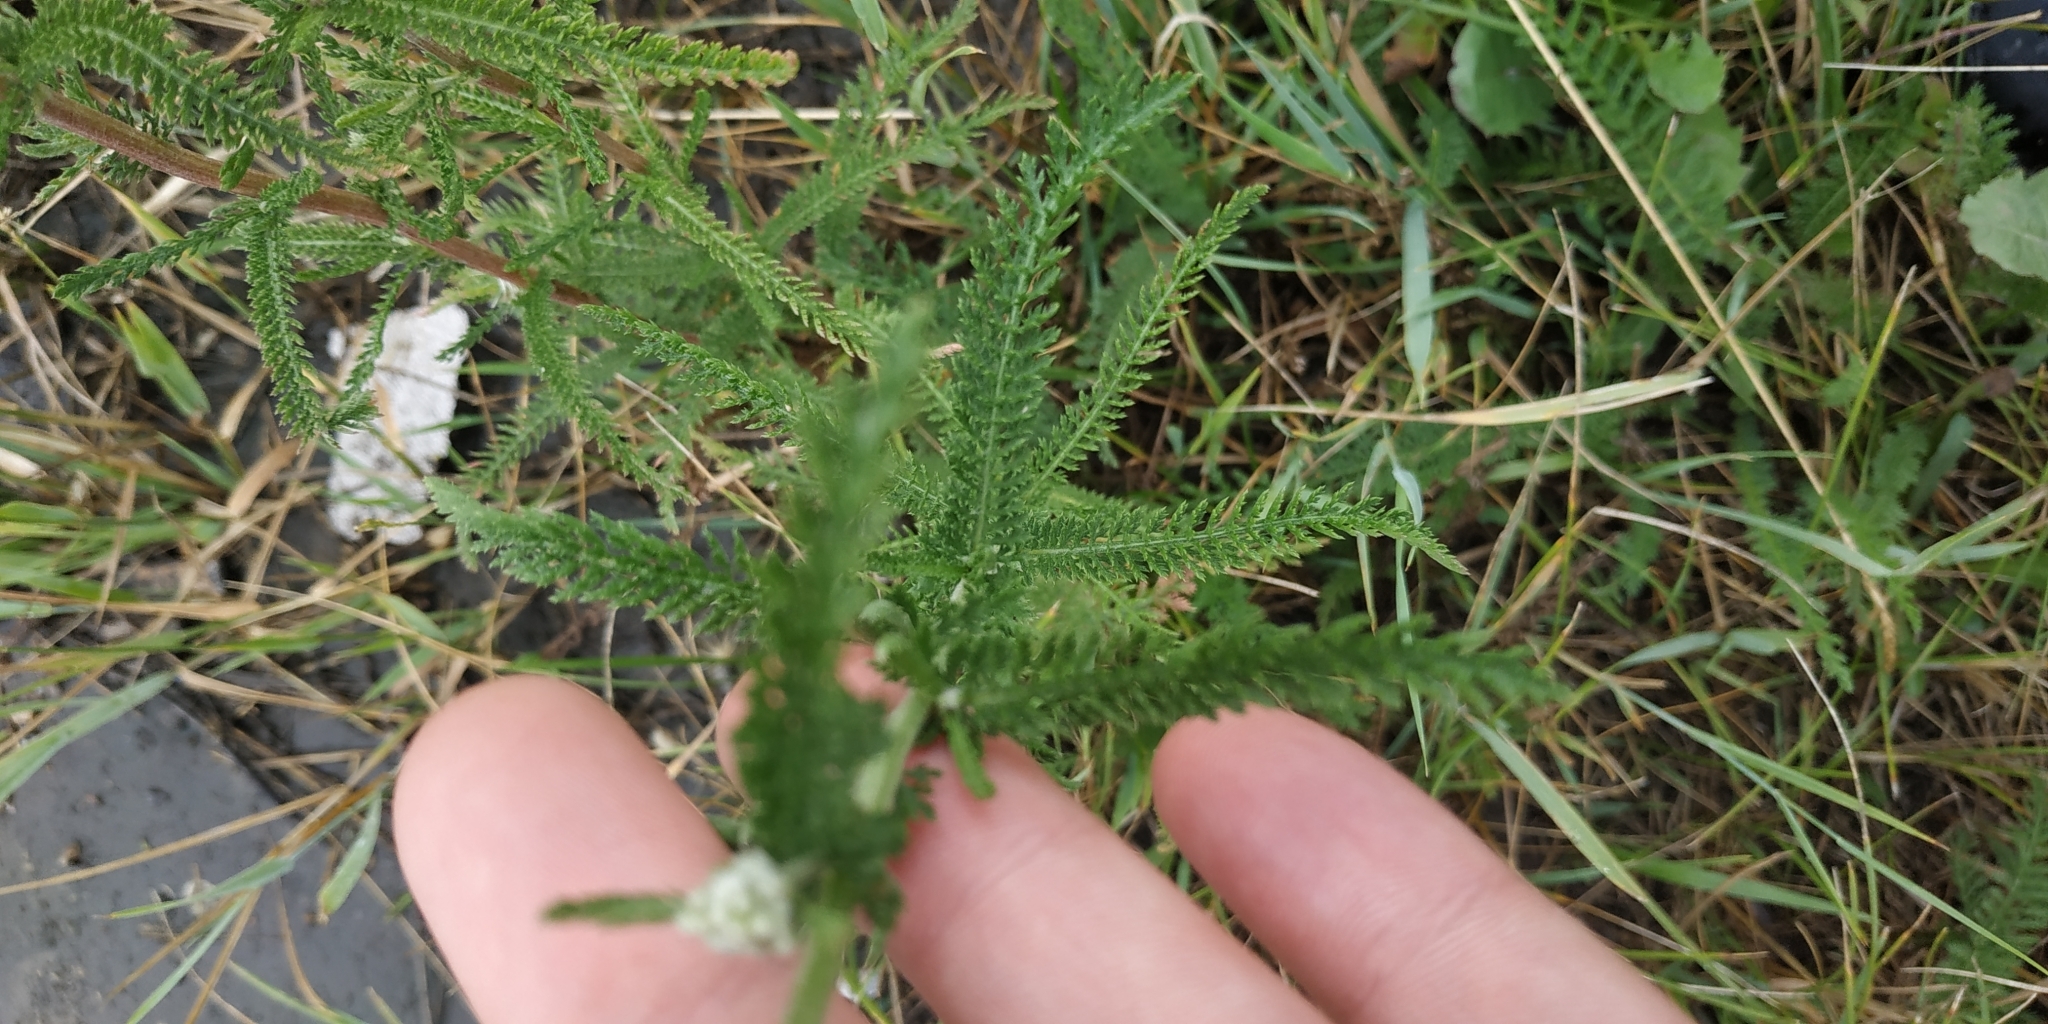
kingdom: Plantae
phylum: Tracheophyta
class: Magnoliopsida
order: Asterales
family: Asteraceae
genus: Achillea
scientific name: Achillea millefolium
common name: Yarrow
